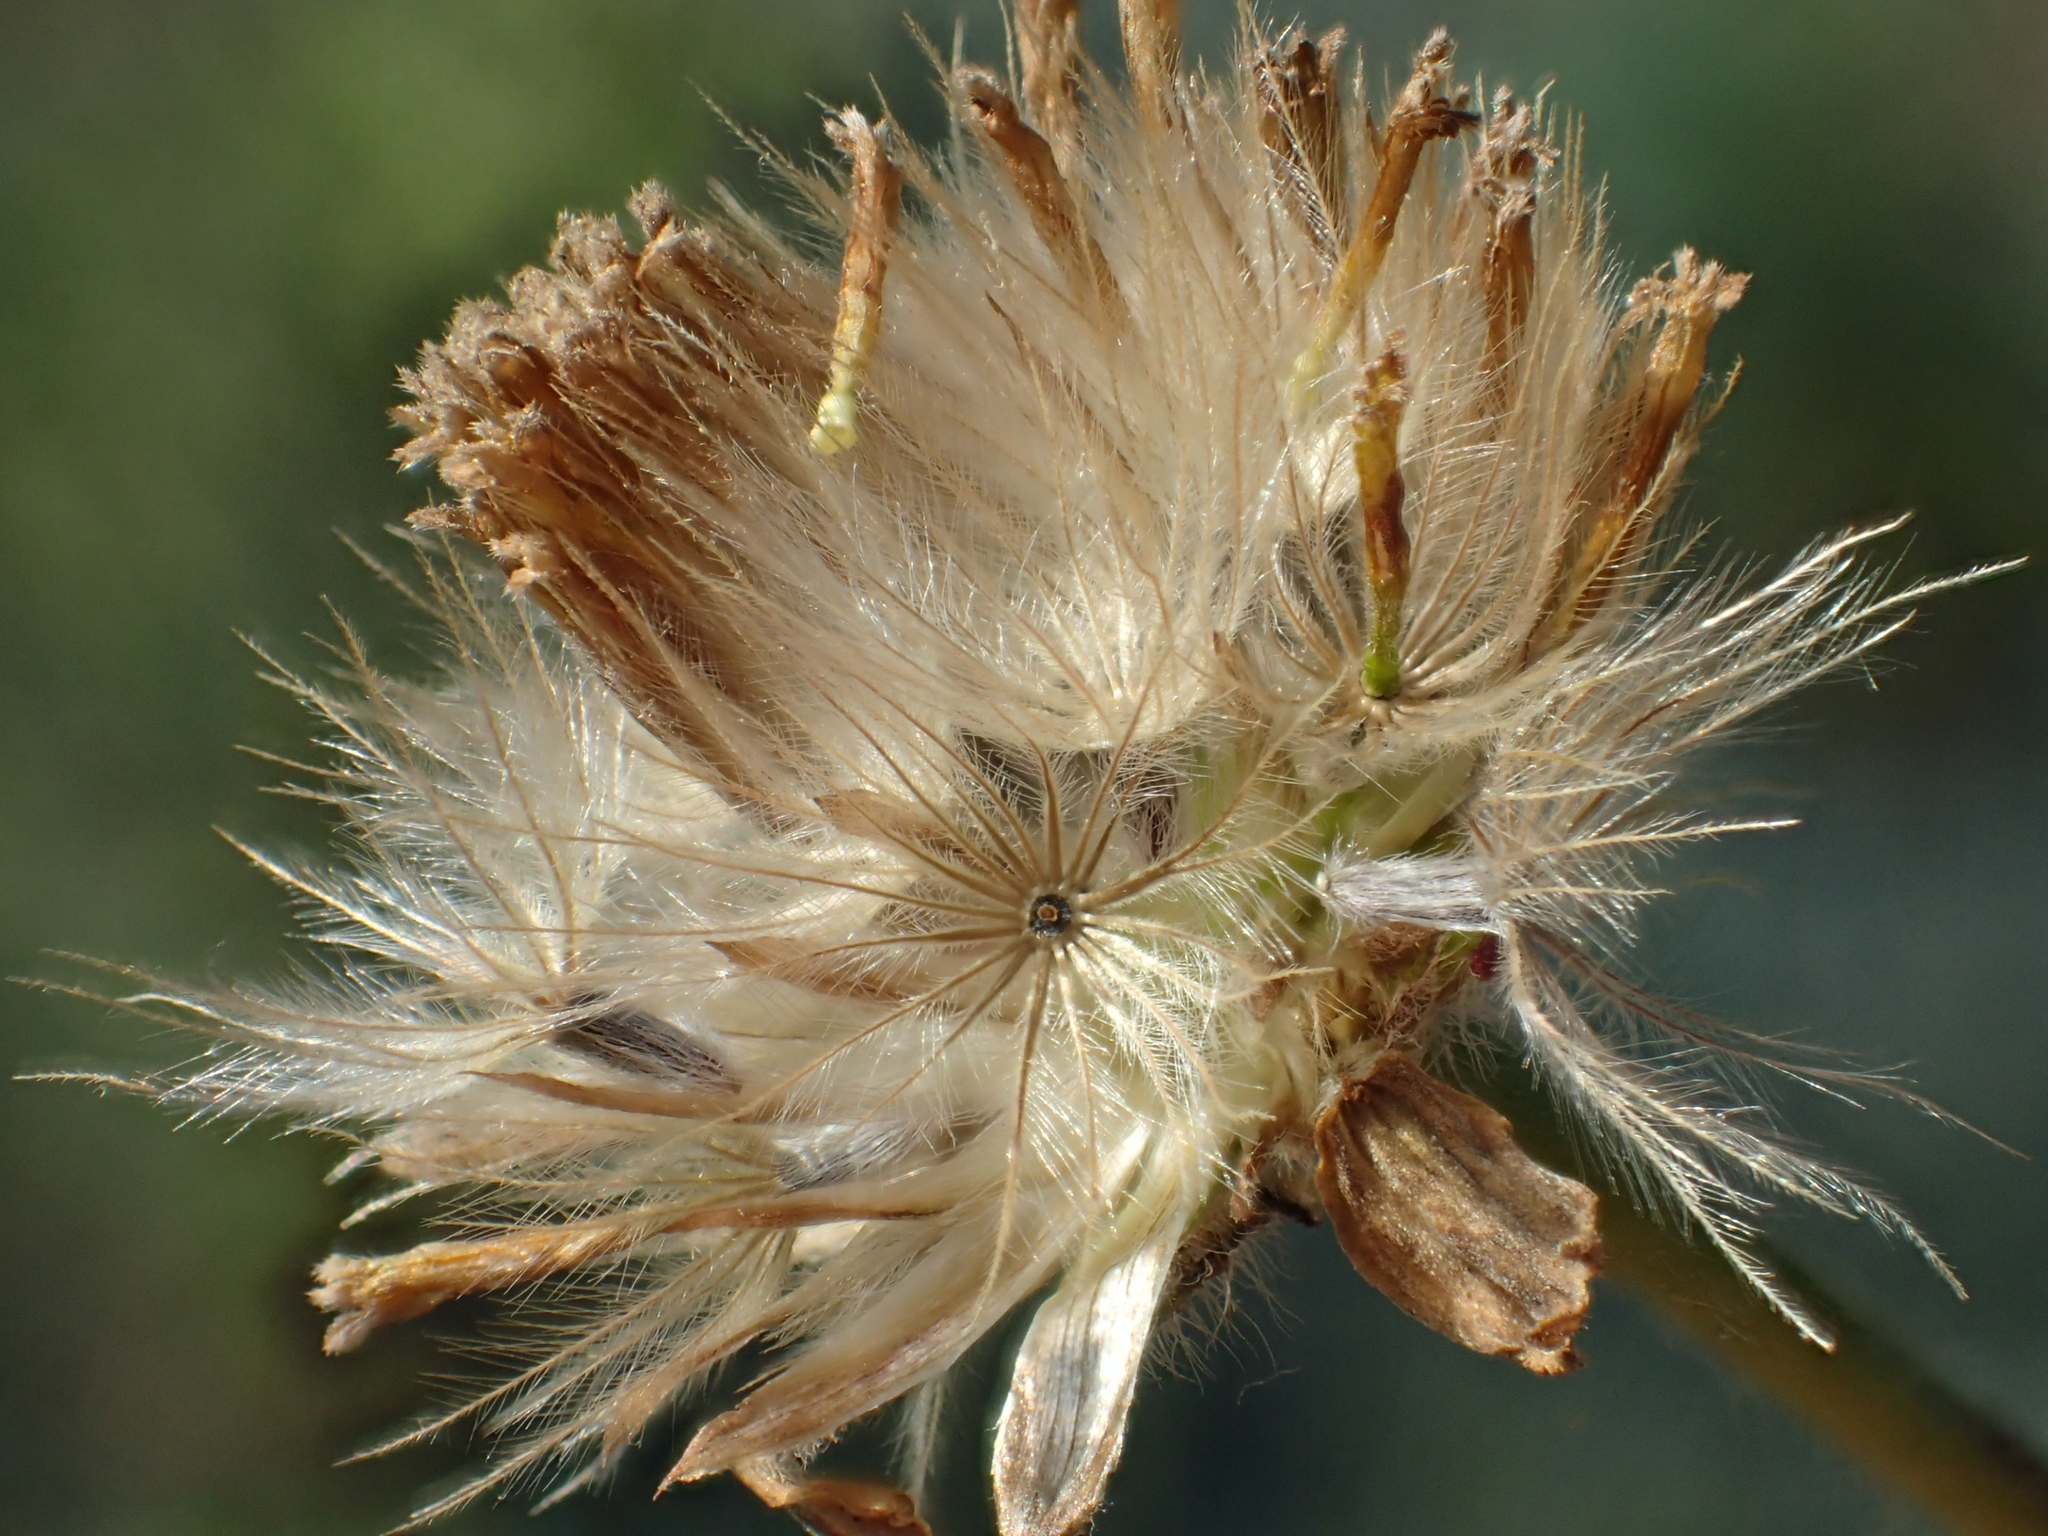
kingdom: Plantae
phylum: Tracheophyta
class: Magnoliopsida
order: Asterales
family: Asteraceae
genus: Tridax
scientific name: Tridax procumbens
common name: Coatbuttons
